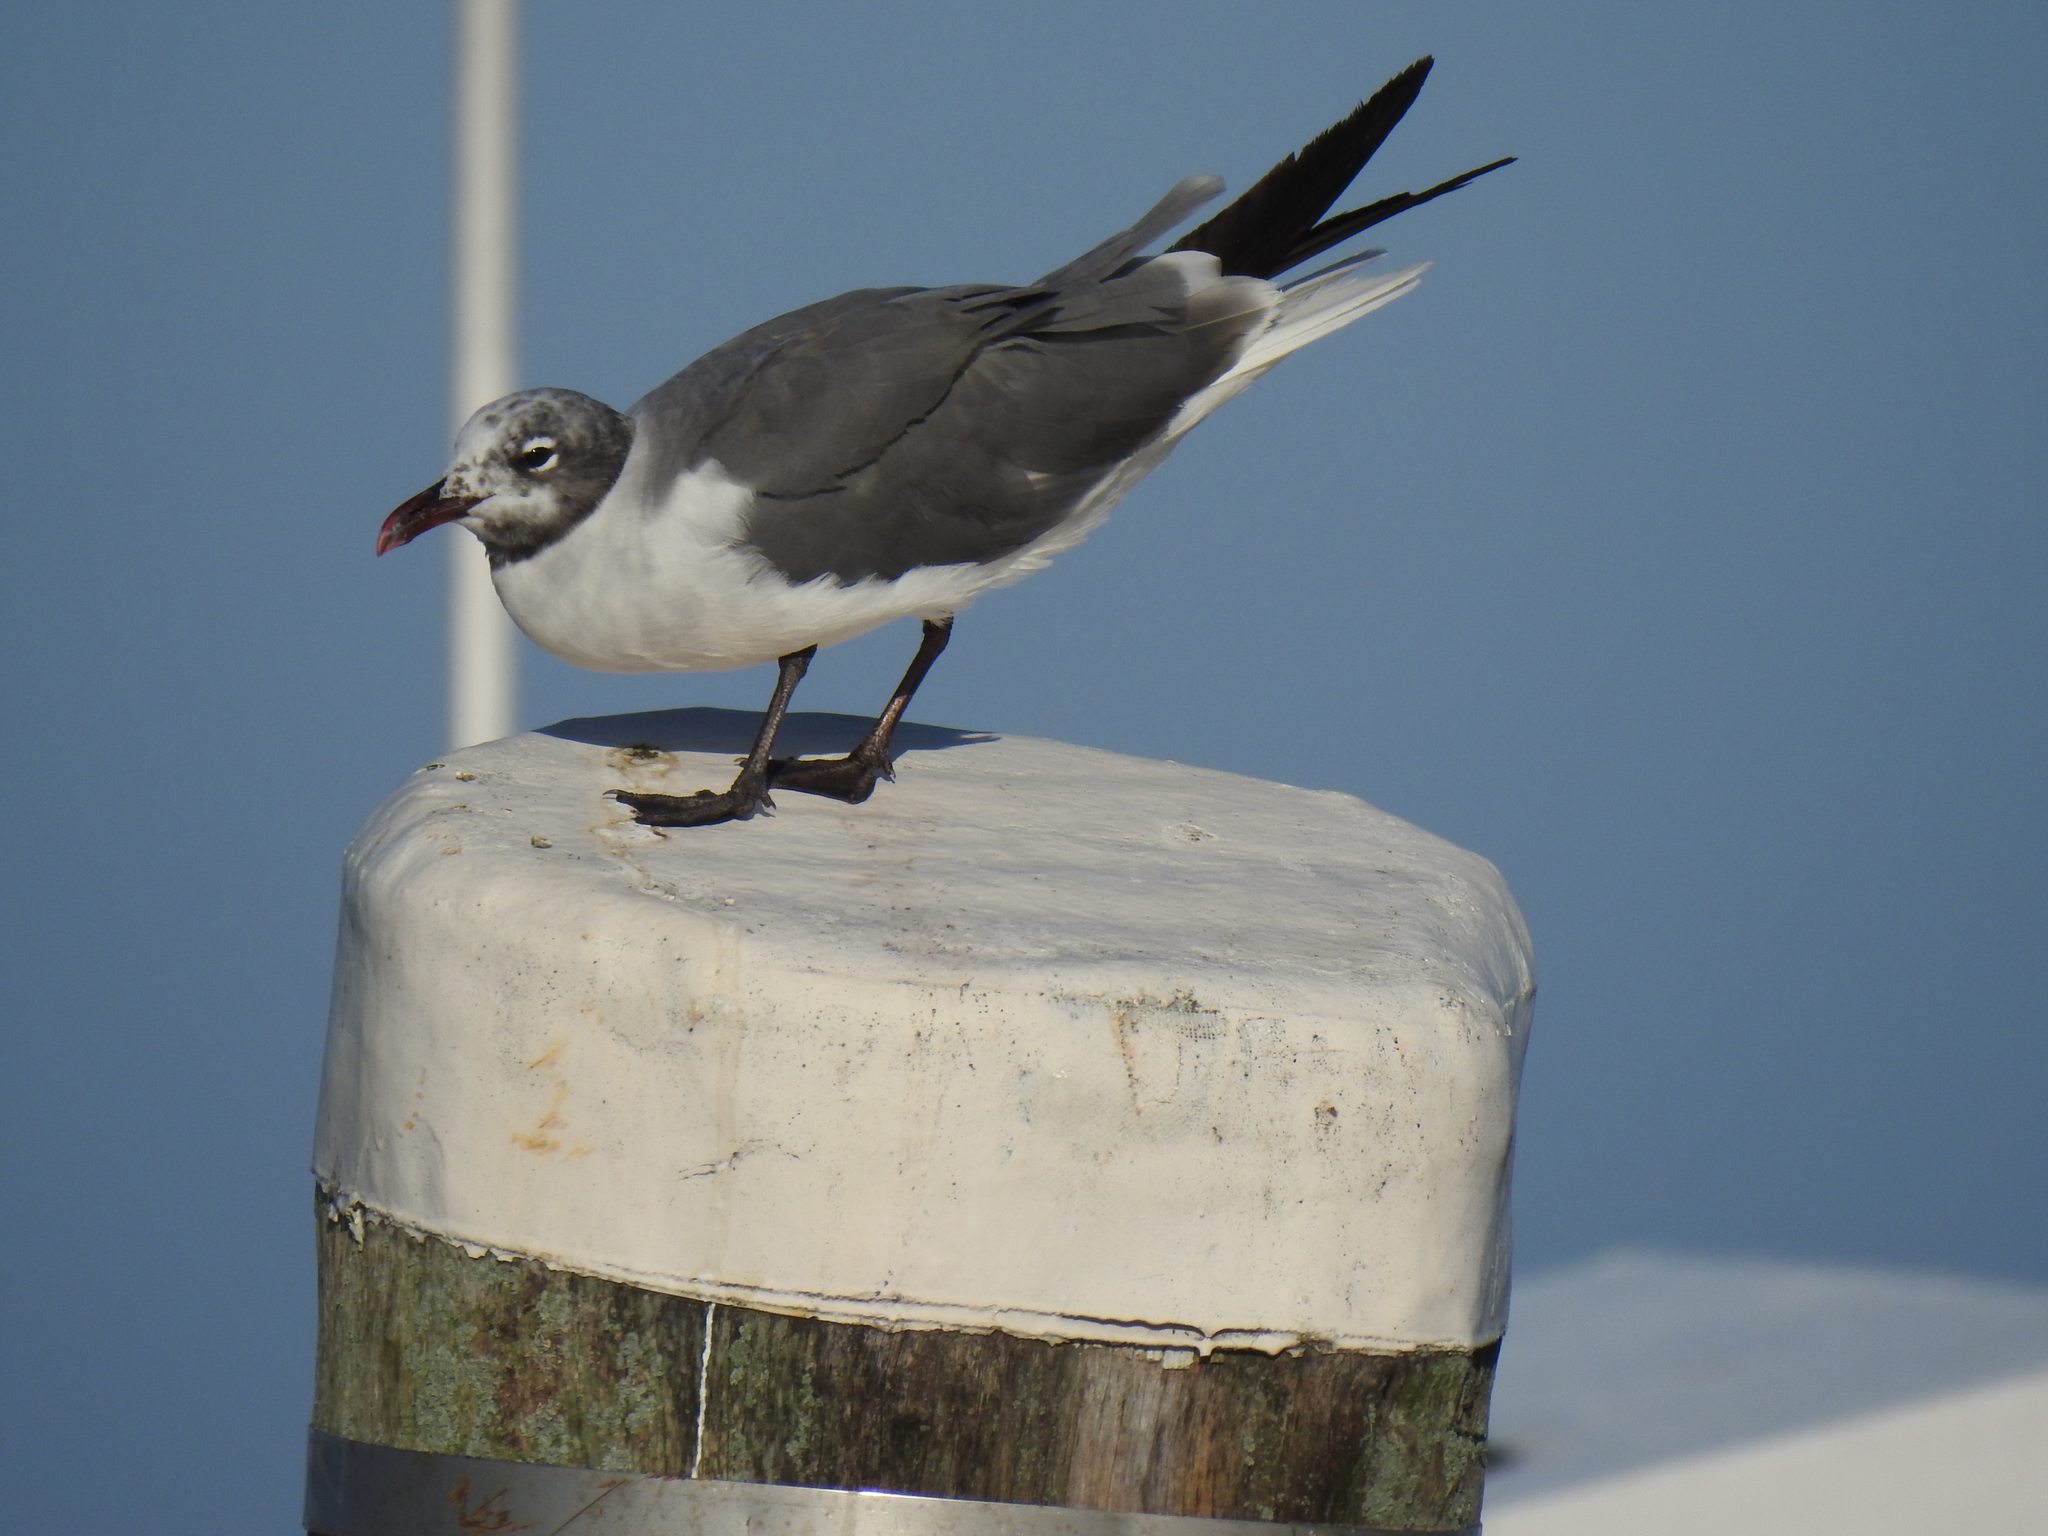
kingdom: Animalia
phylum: Chordata
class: Aves
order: Charadriiformes
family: Laridae
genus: Leucophaeus
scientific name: Leucophaeus atricilla
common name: Laughing gull
